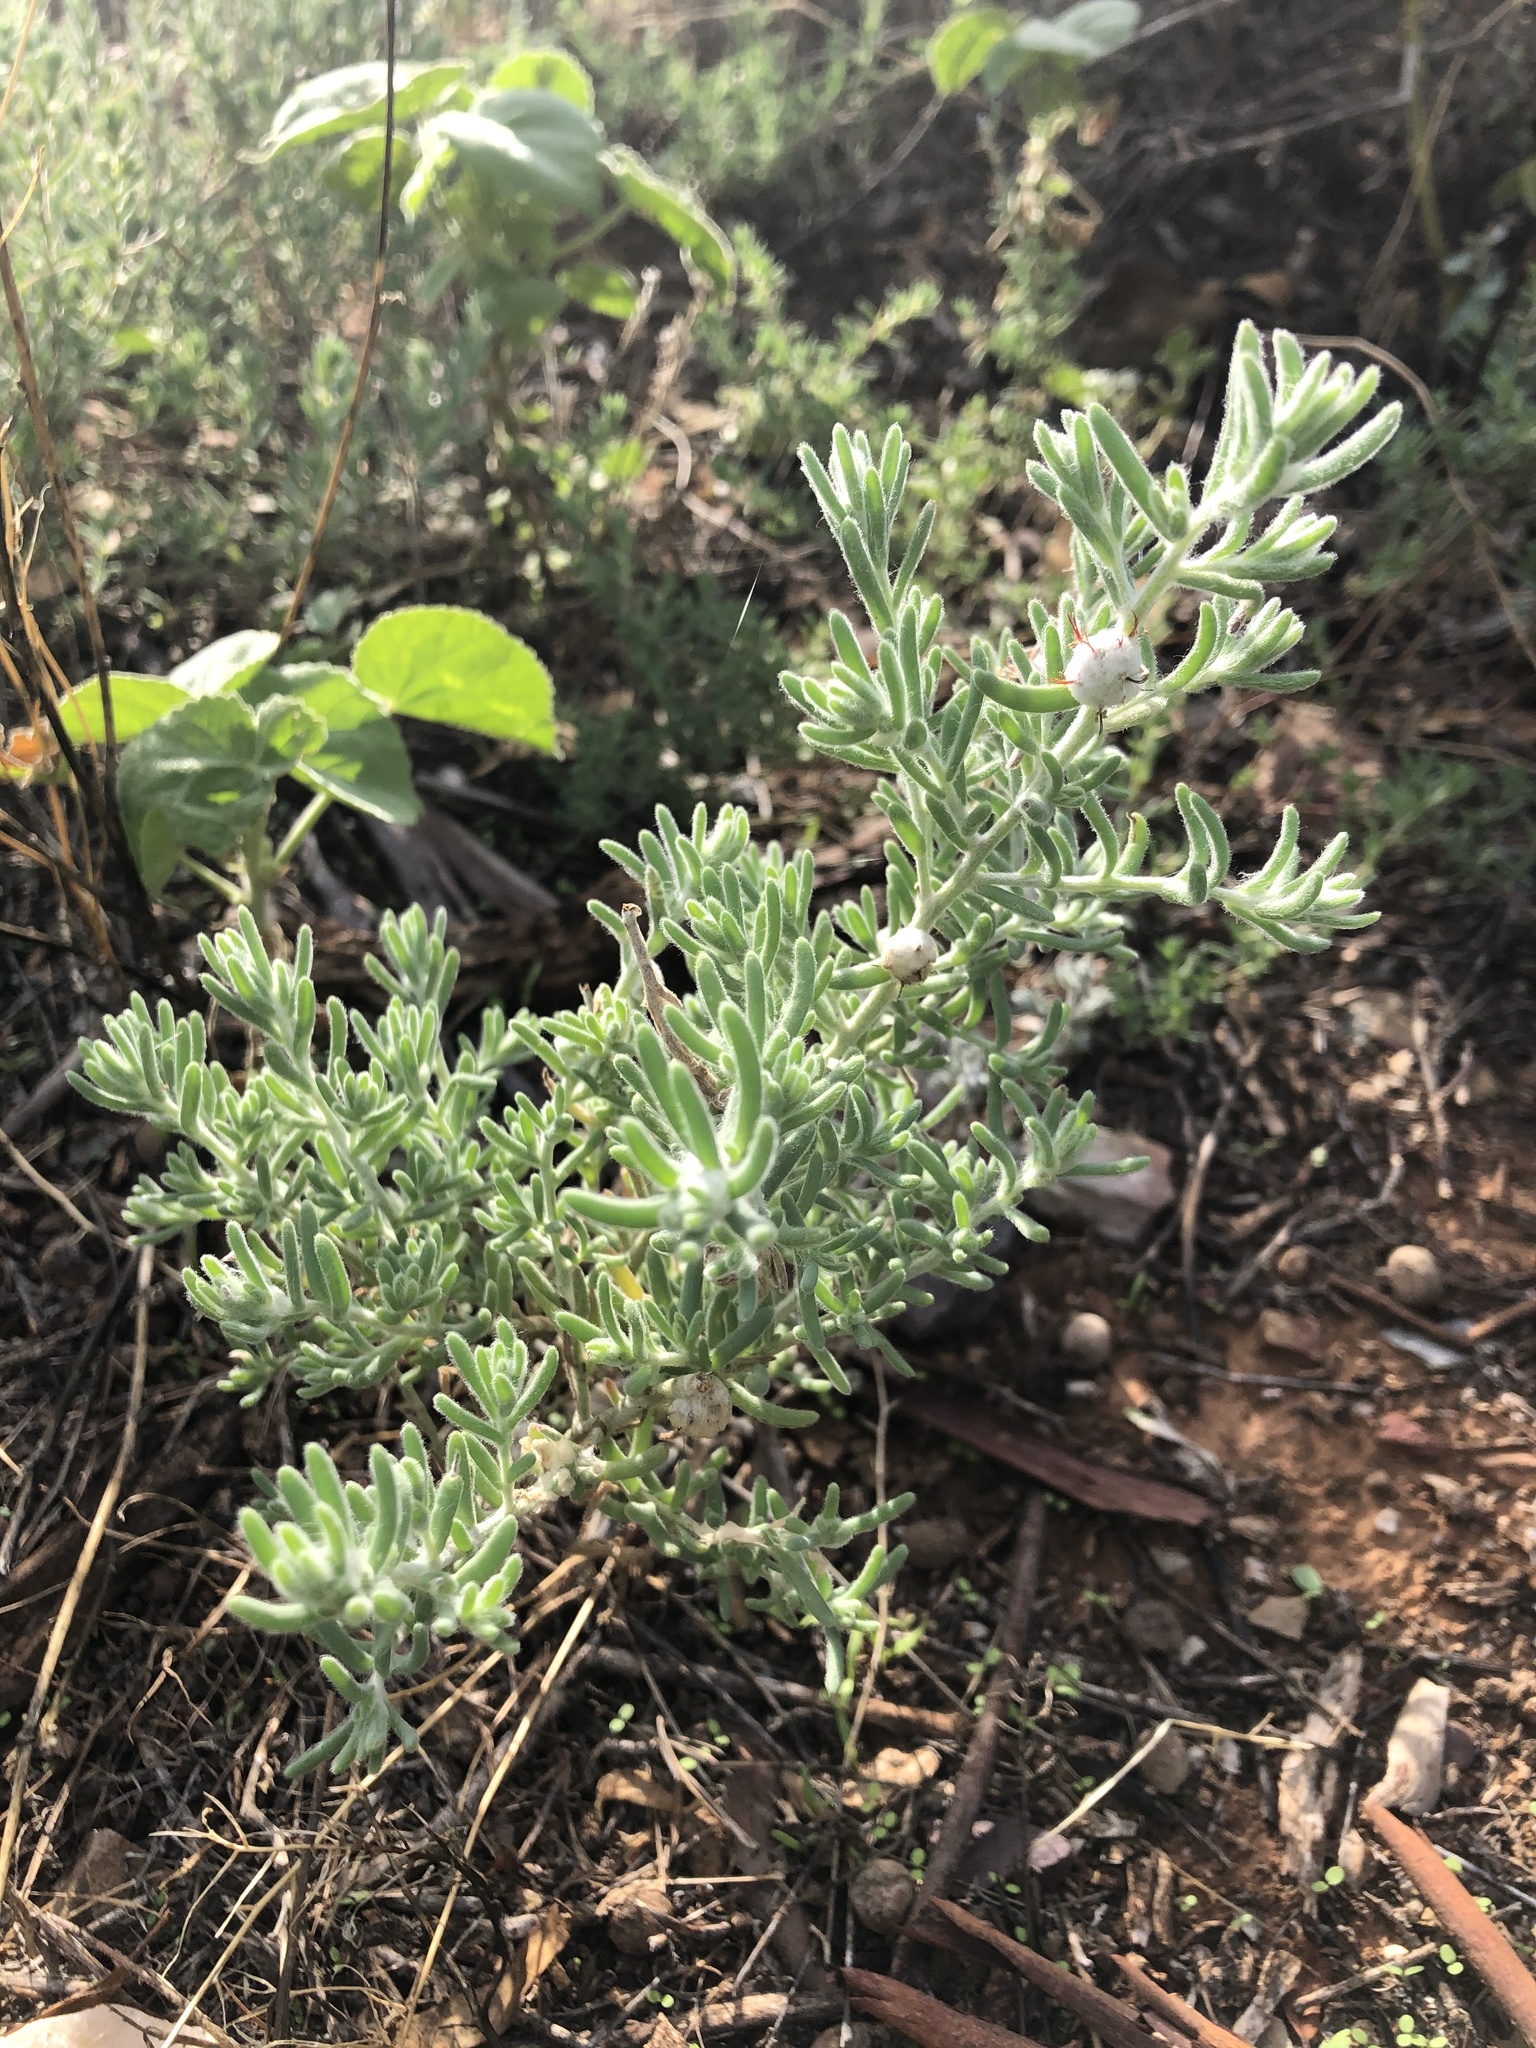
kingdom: Plantae
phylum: Tracheophyta
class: Magnoliopsida
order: Caryophyllales
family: Amaranthaceae
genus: Dissocarpus
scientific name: Dissocarpus paradoxus
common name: Bur-saltbush
